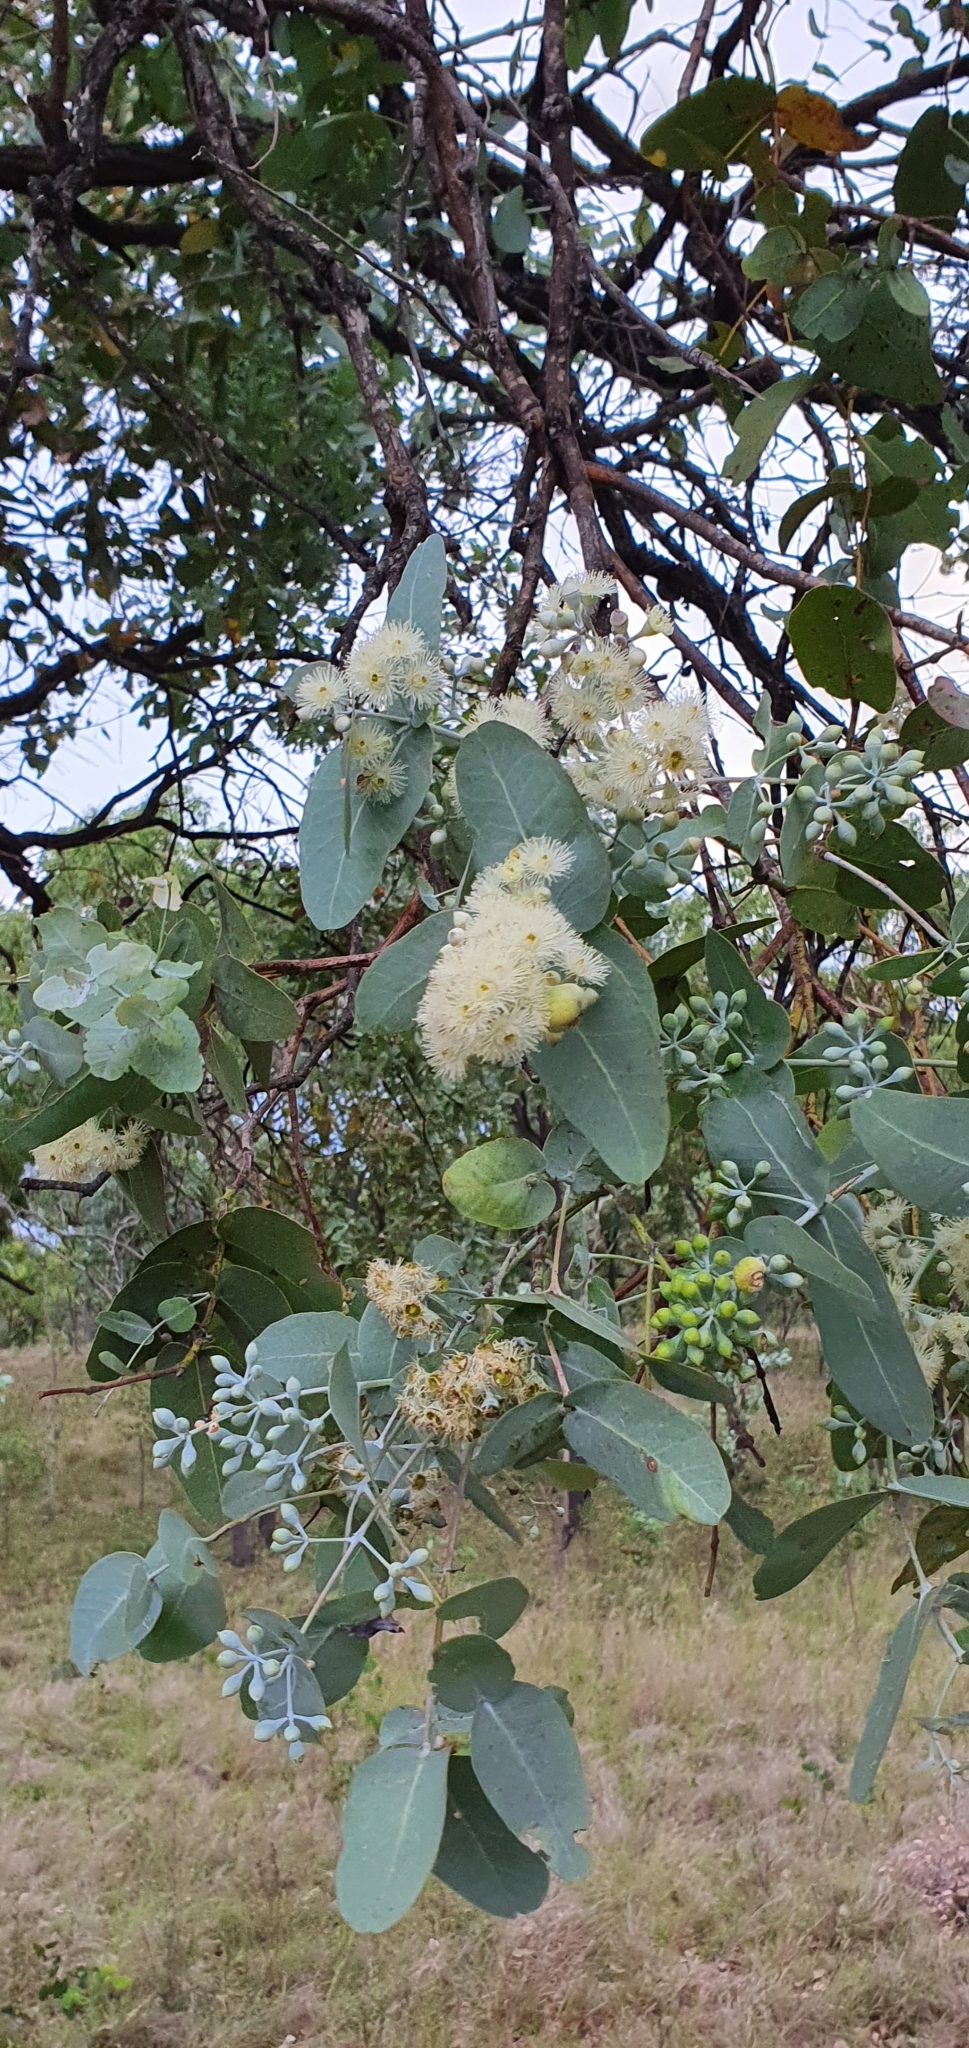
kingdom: Plantae
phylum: Tracheophyta
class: Magnoliopsida
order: Myrtales
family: Myrtaceae
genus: Eucalyptus
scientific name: Eucalyptus melanophloia
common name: Silver-leaved-ironbark
